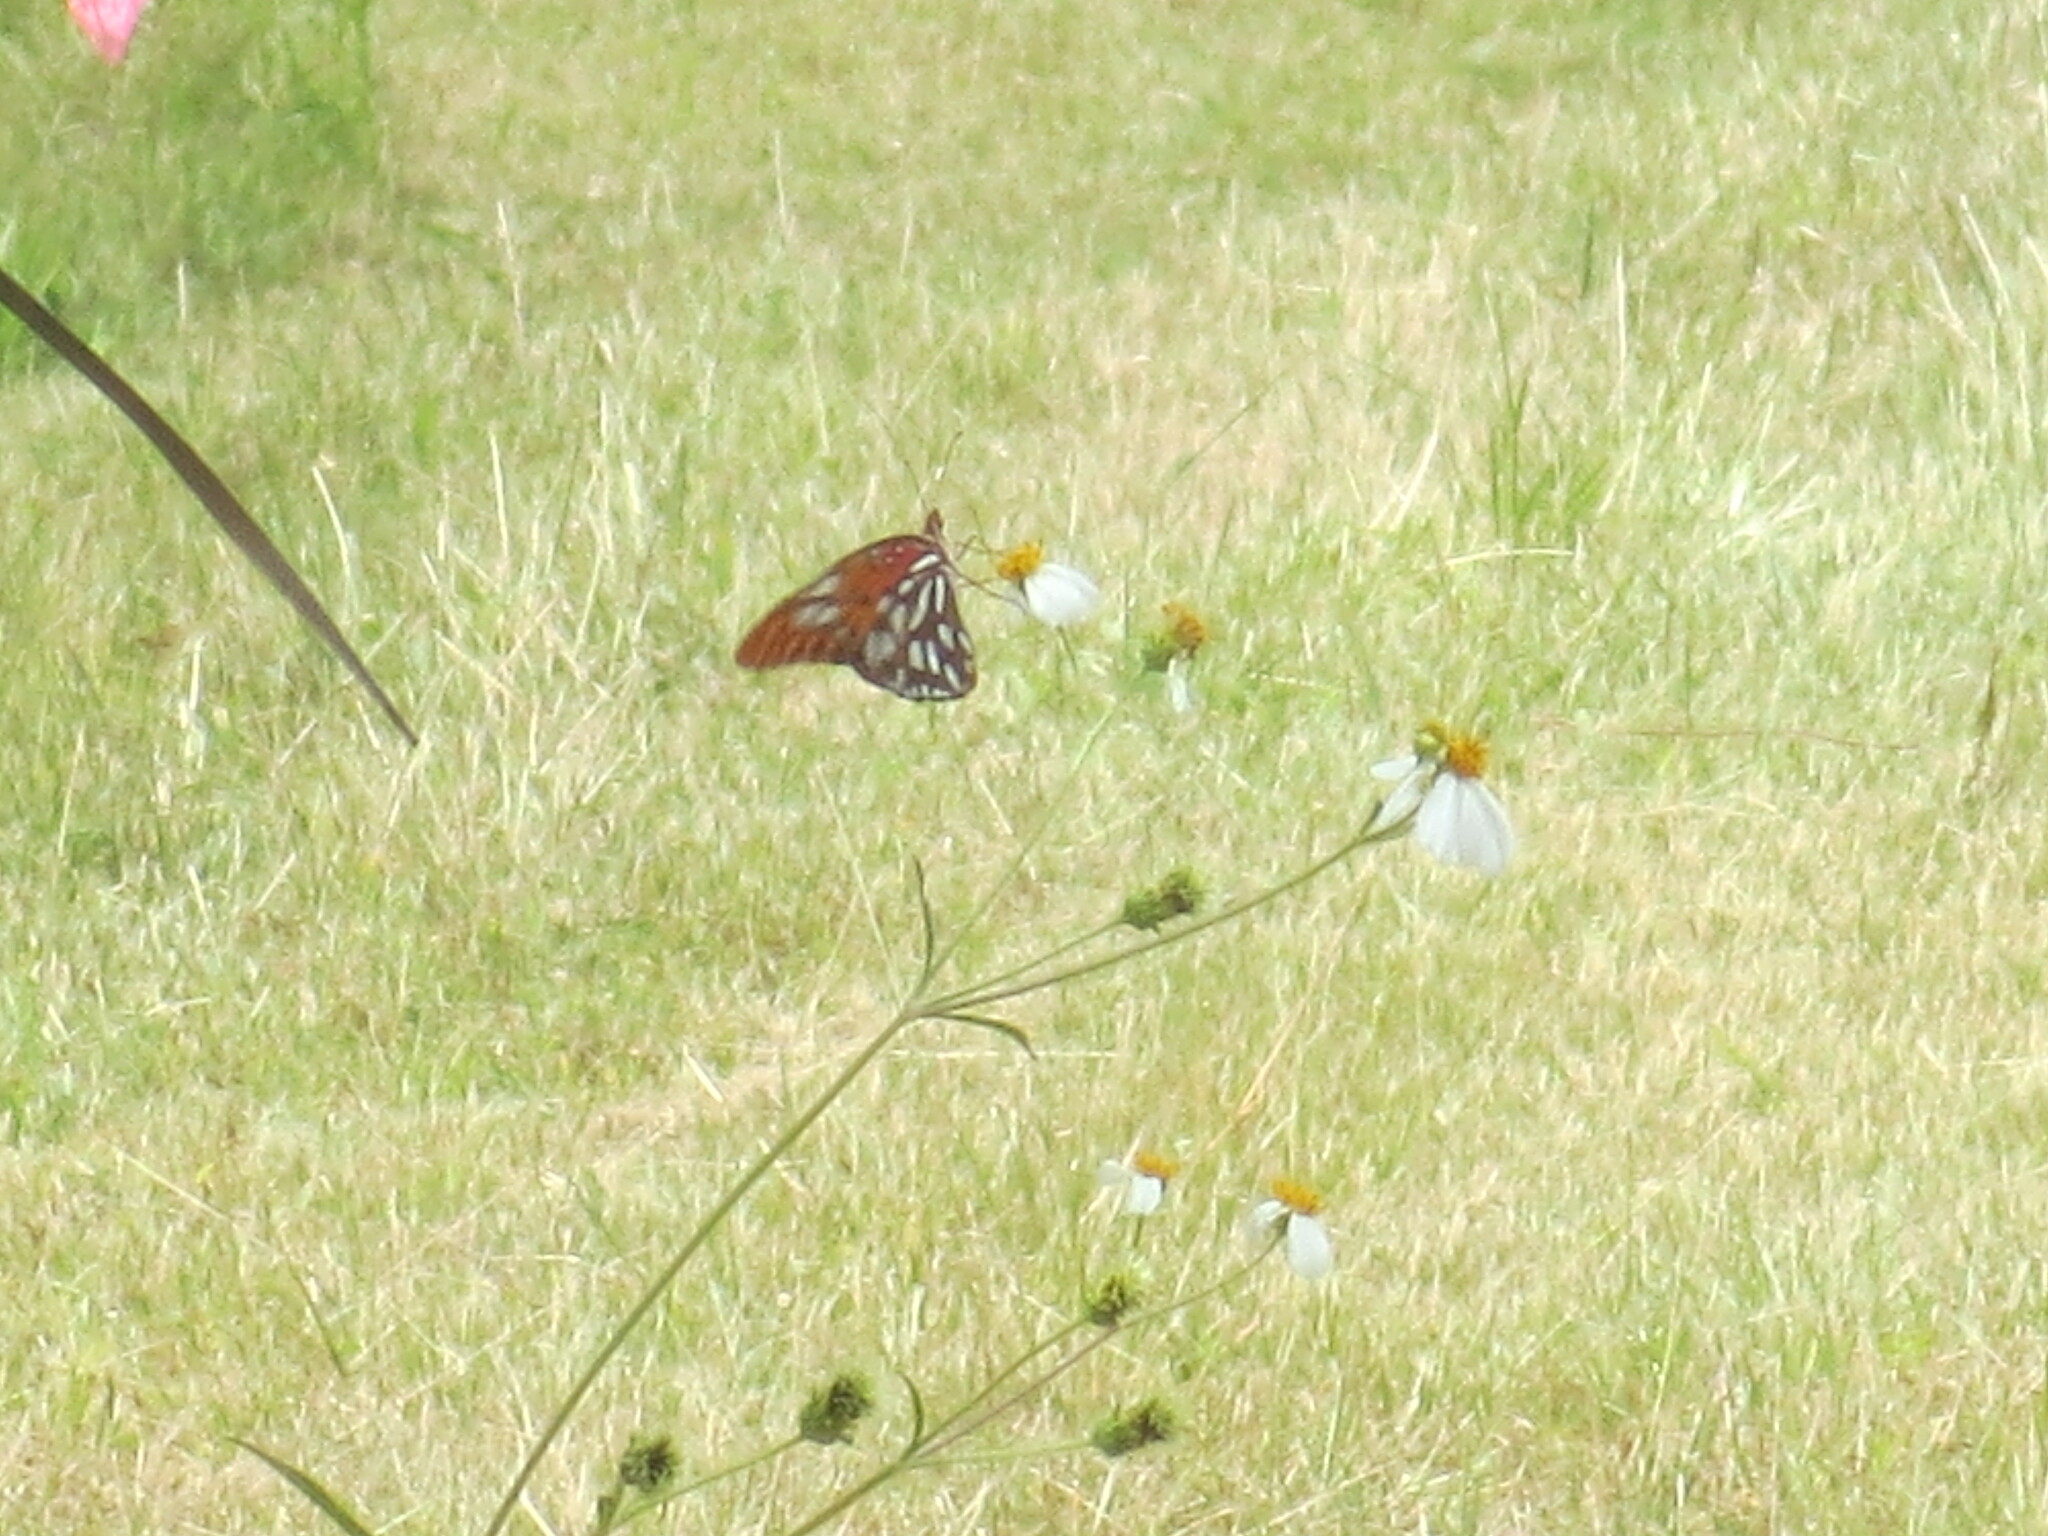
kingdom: Animalia
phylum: Arthropoda
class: Insecta
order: Lepidoptera
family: Nymphalidae
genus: Dione
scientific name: Dione vanillae
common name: Gulf fritillary
